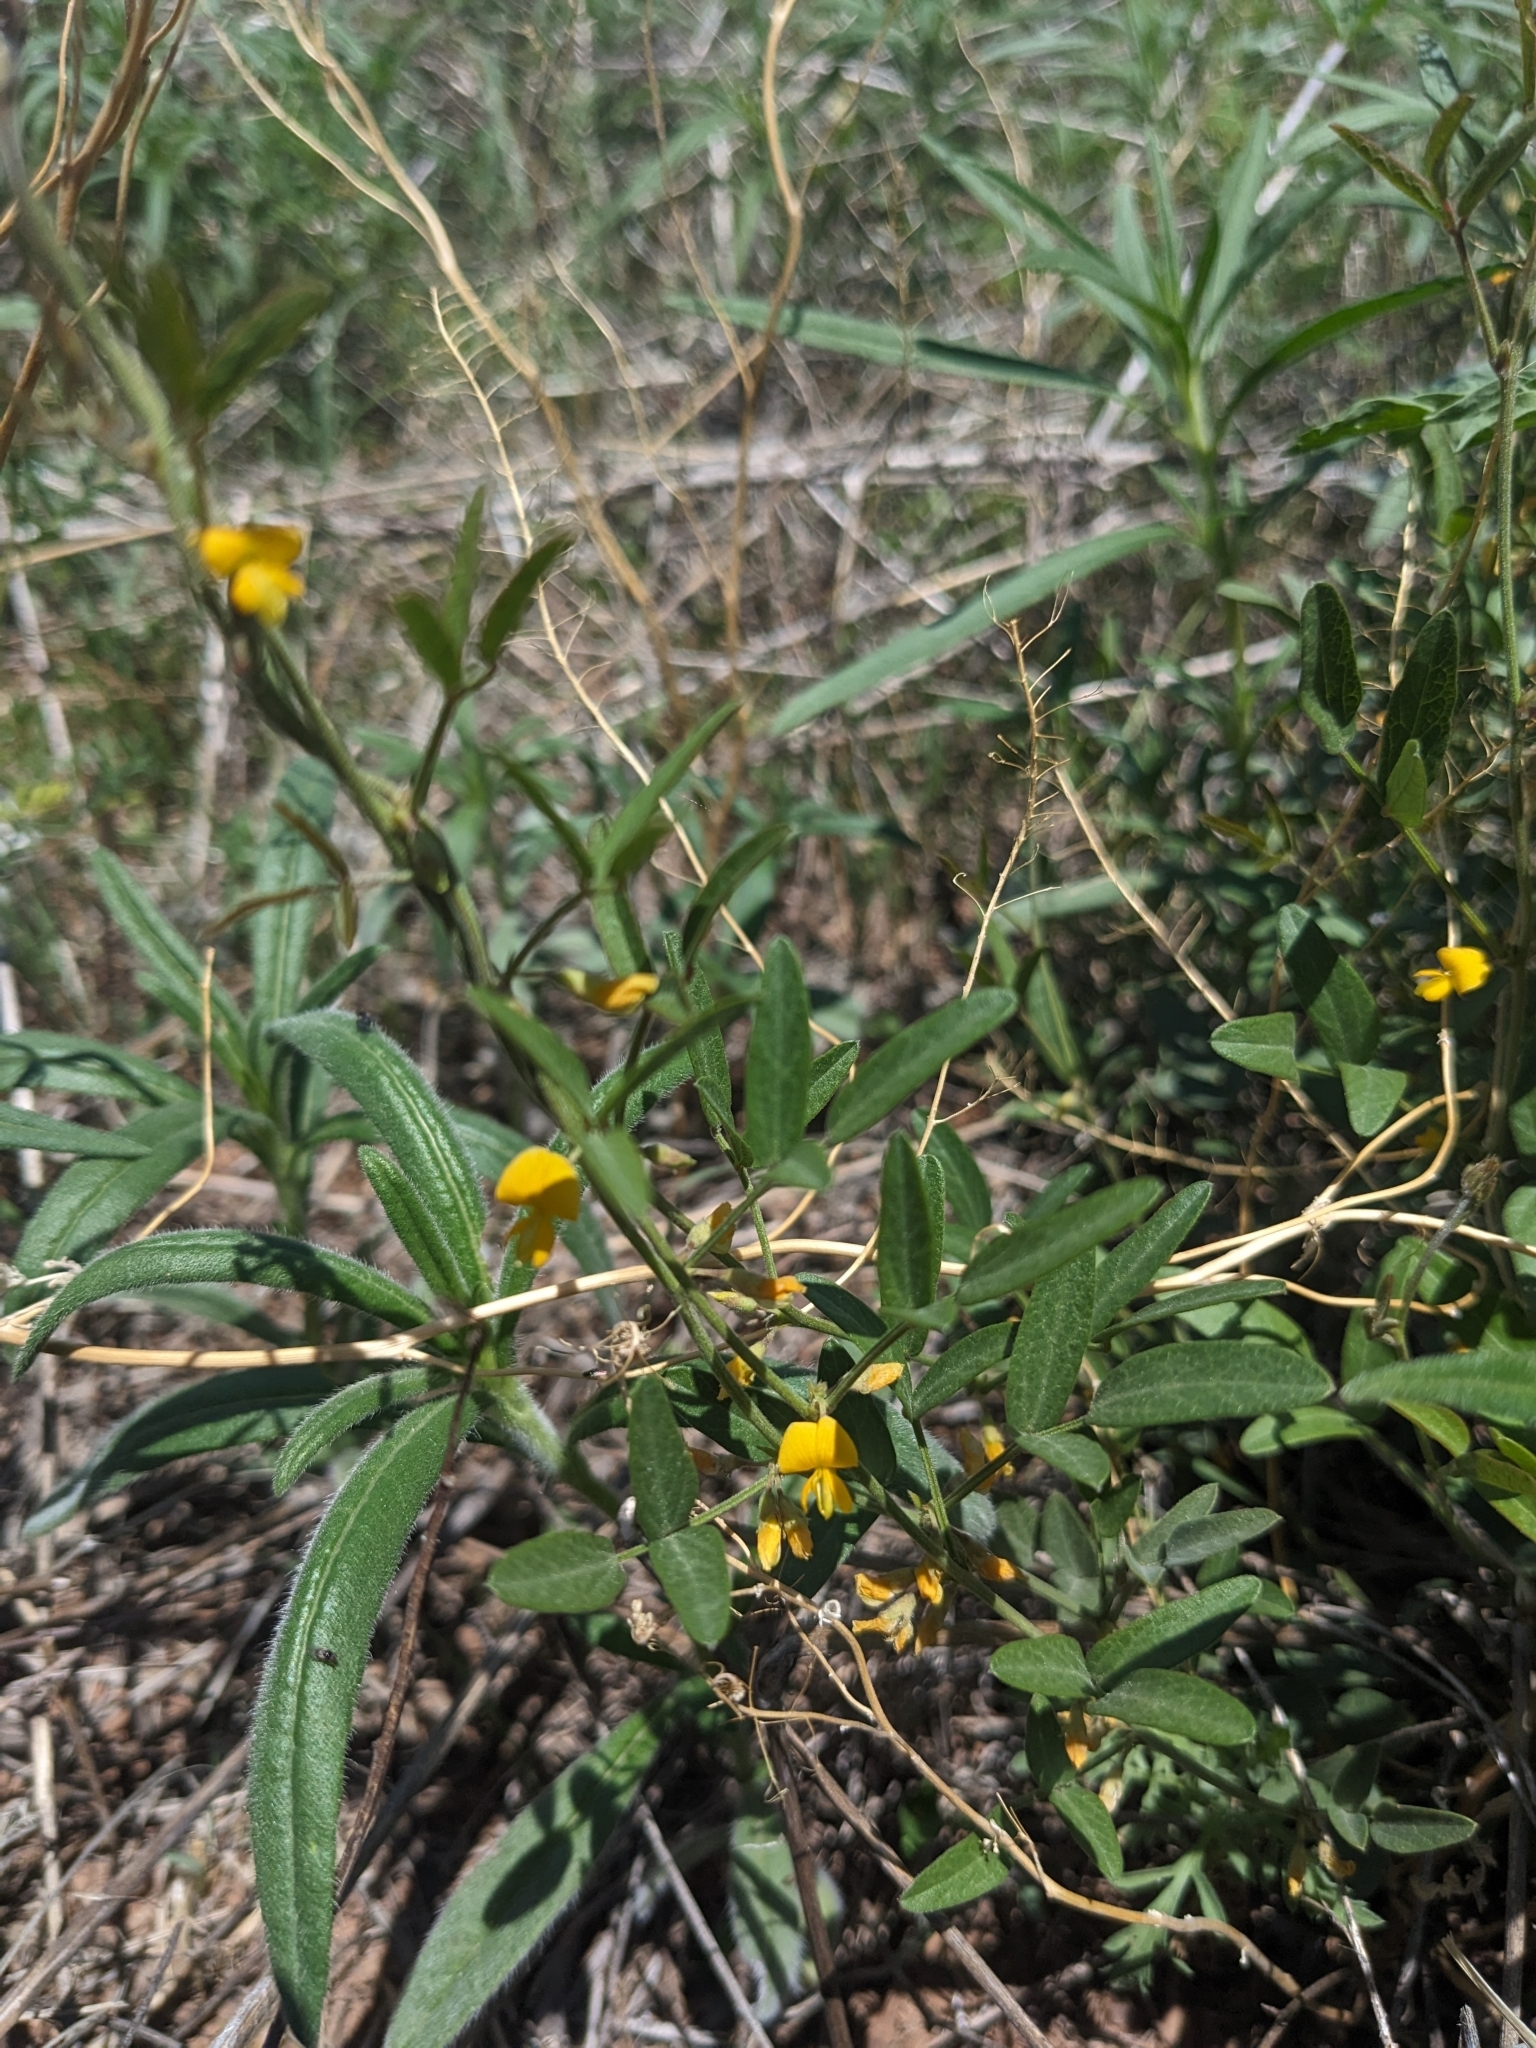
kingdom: Plantae
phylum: Tracheophyta
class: Magnoliopsida
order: Fabales
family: Fabaceae
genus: Rhynchosia
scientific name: Rhynchosia senna
